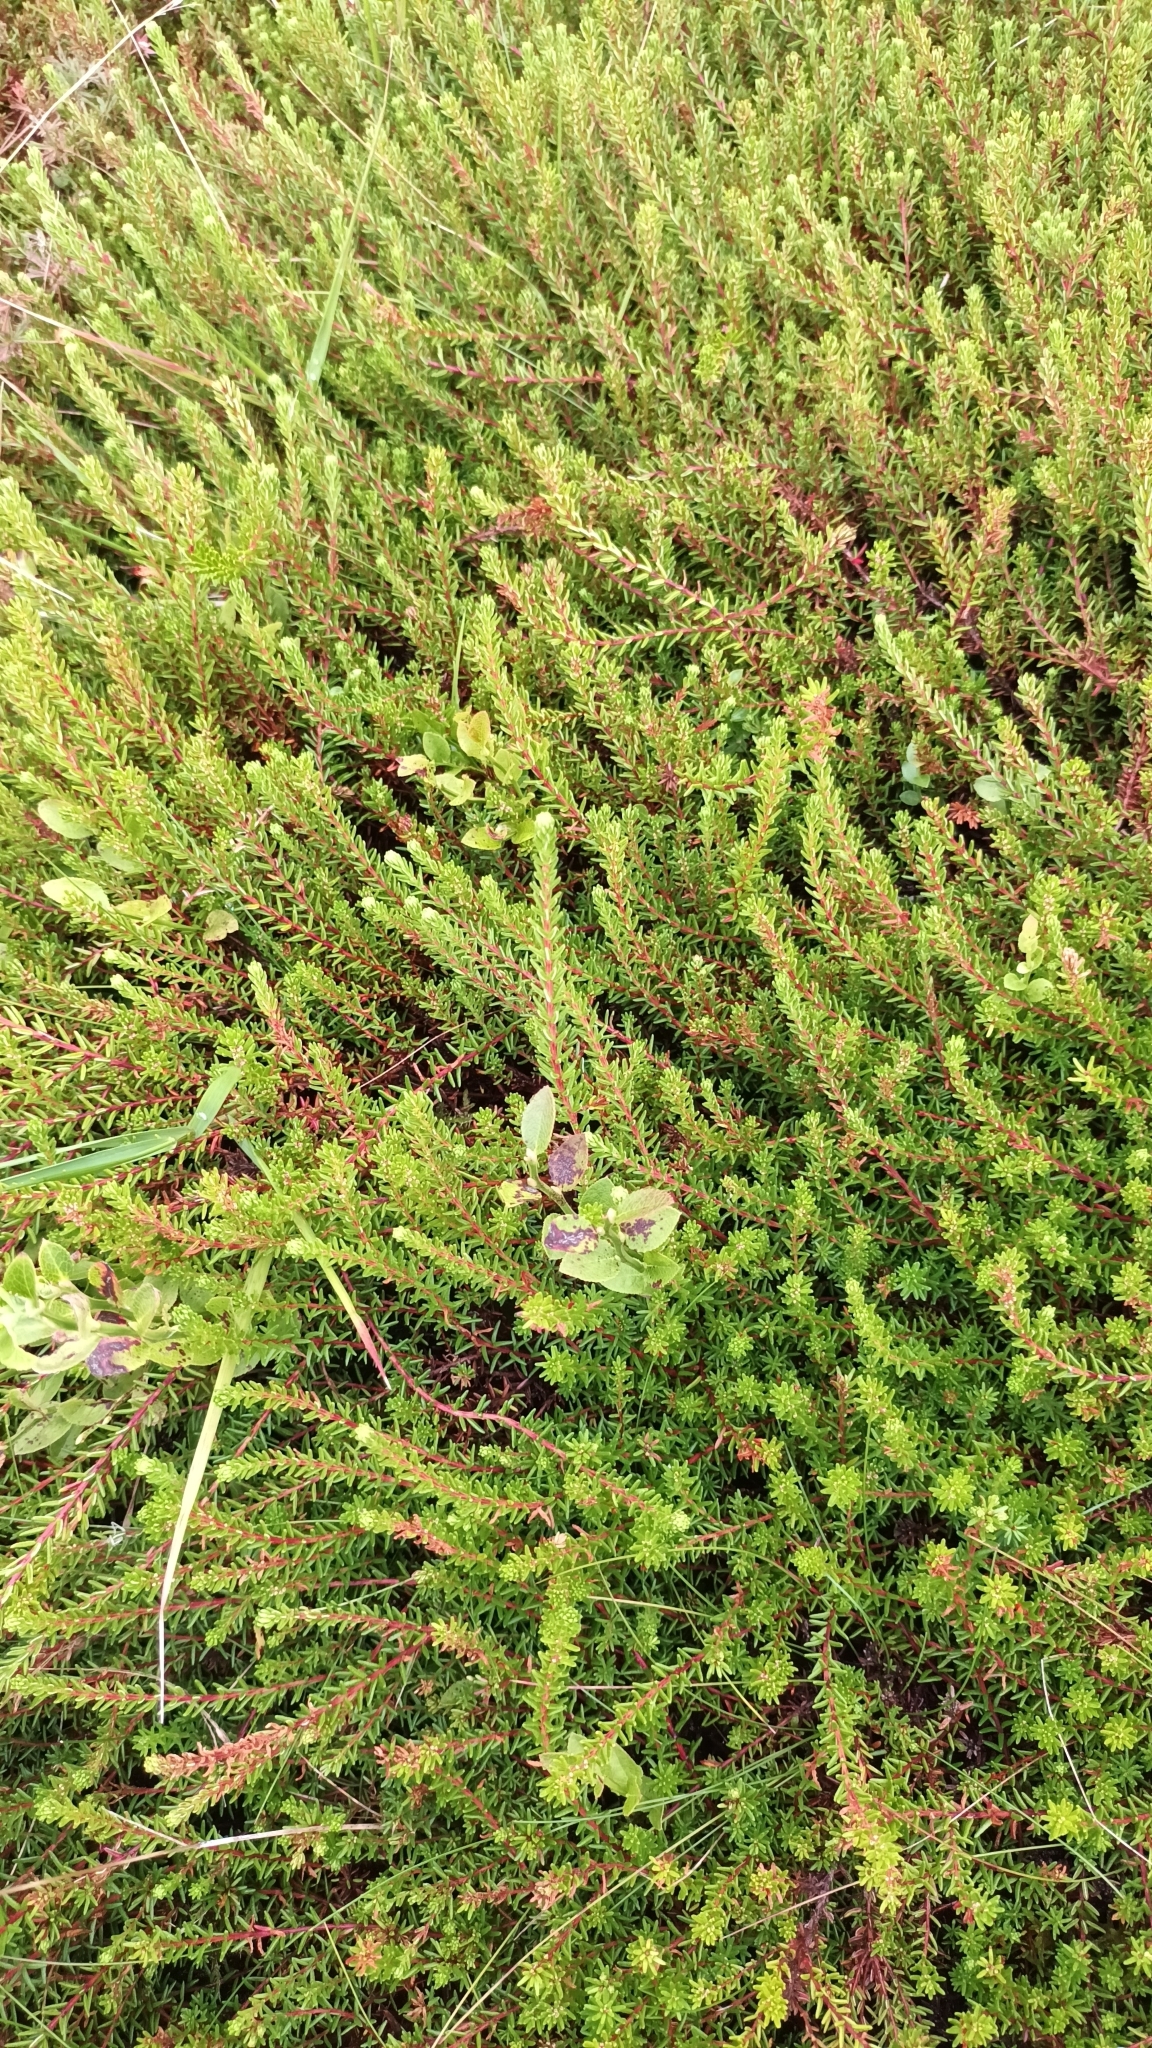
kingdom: Plantae
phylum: Tracheophyta
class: Magnoliopsida
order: Ericales
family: Ericaceae
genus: Empetrum
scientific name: Empetrum nigrum
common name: Black crowberry
